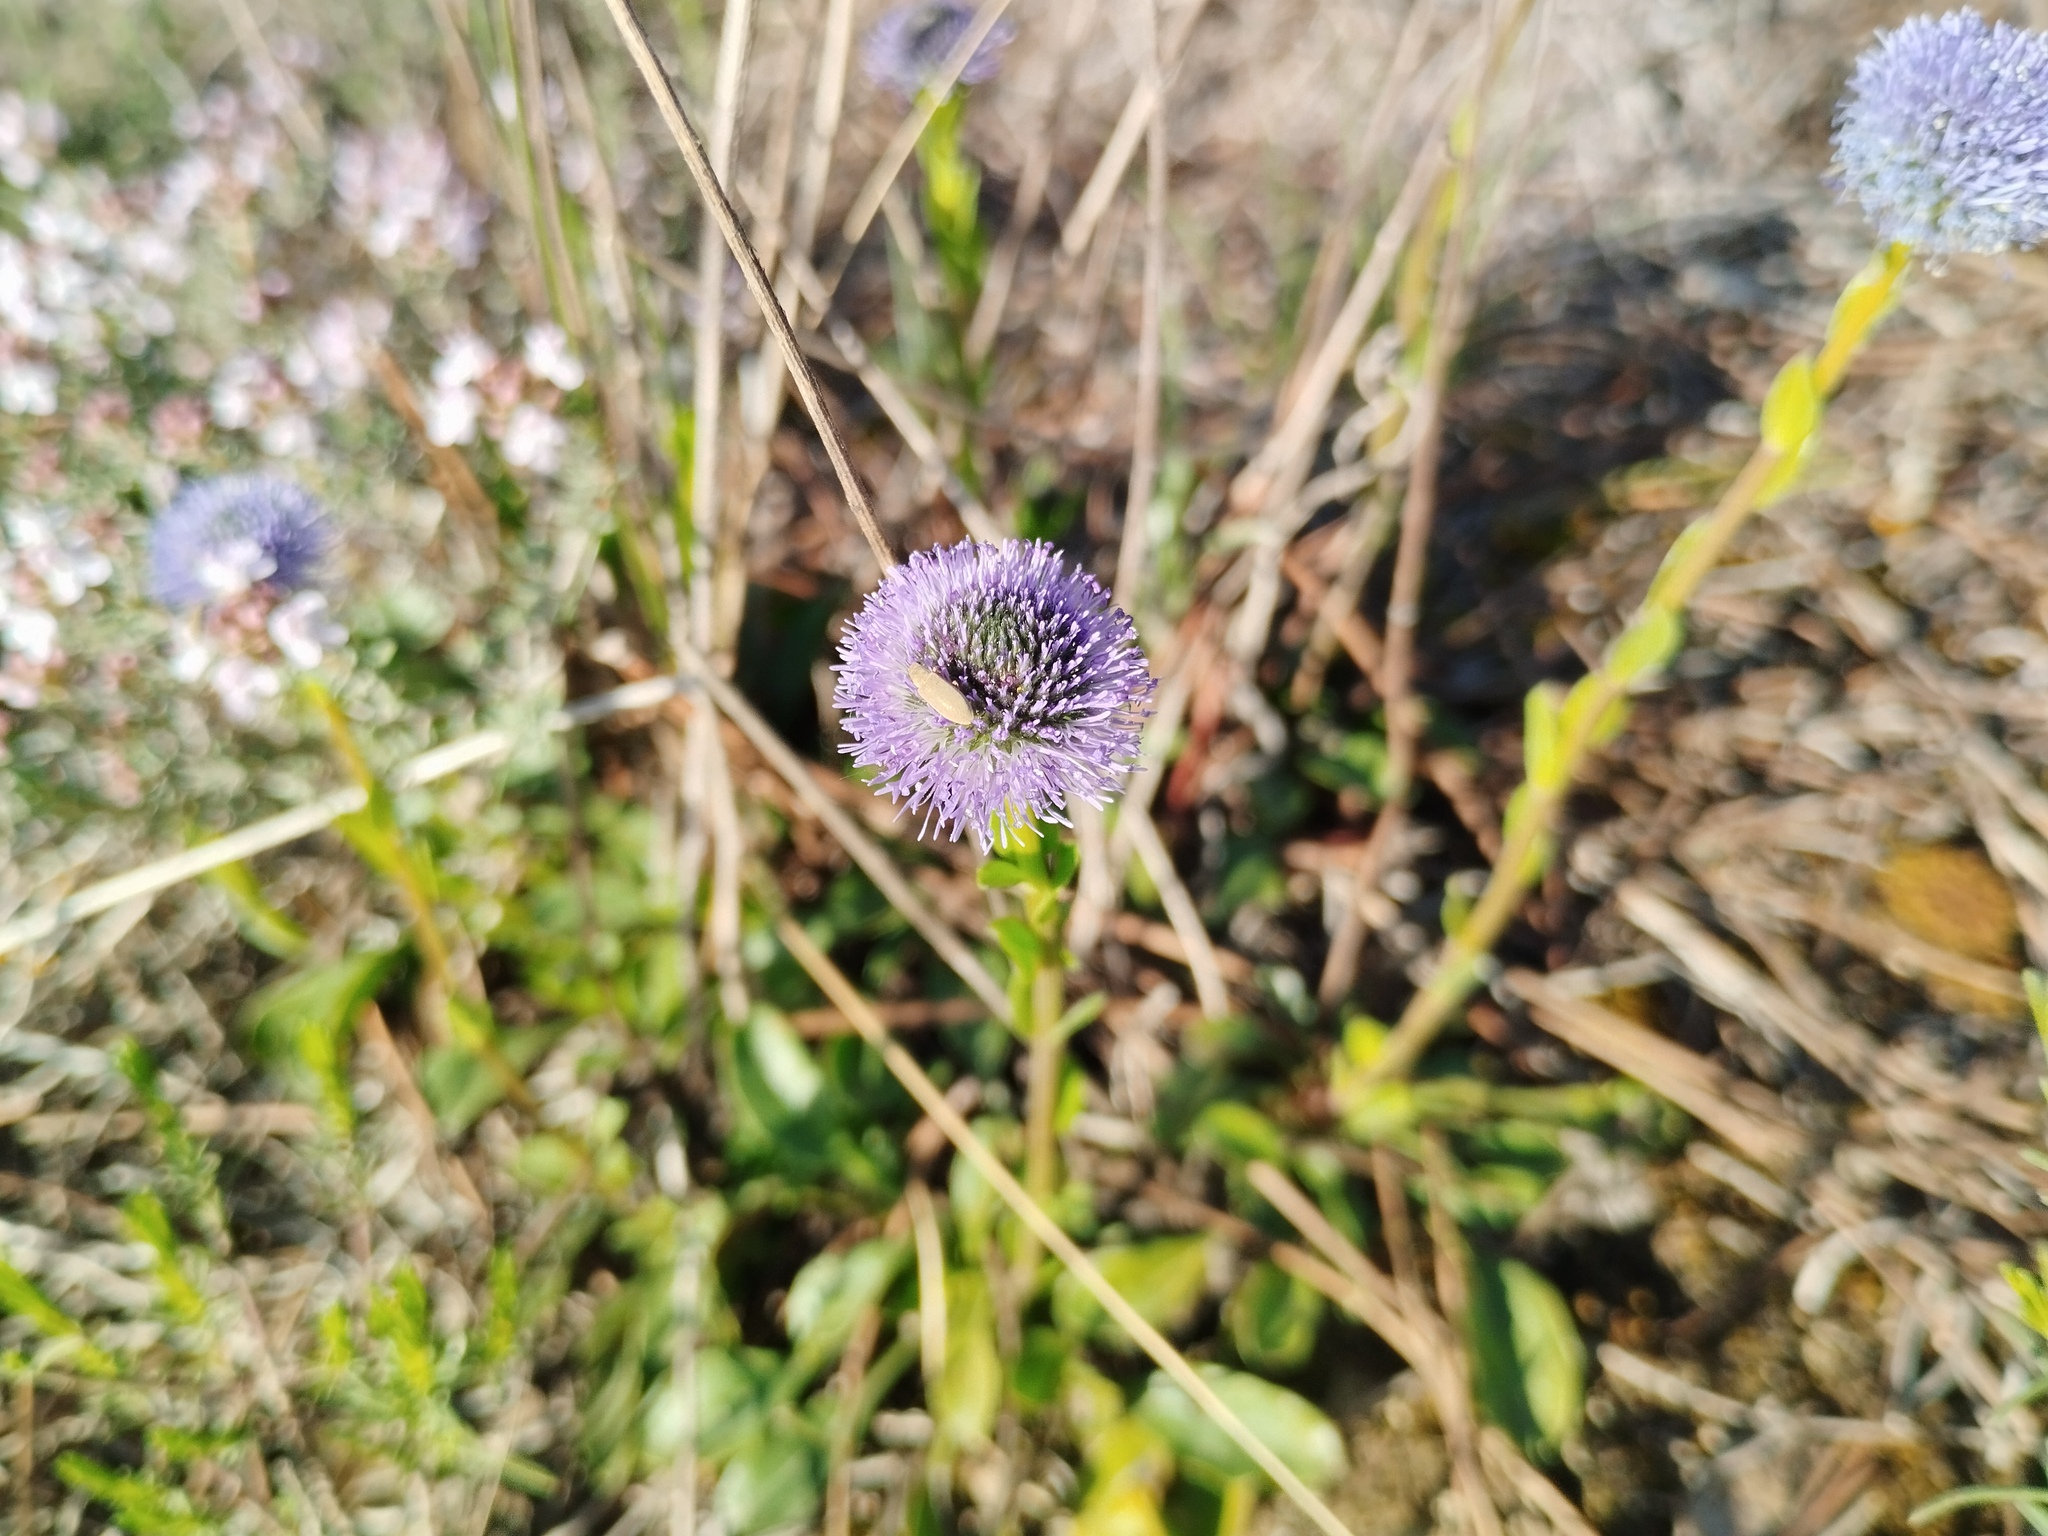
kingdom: Plantae
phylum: Tracheophyta
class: Magnoliopsida
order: Lamiales
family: Plantaginaceae
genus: Globularia
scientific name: Globularia bisnagarica
